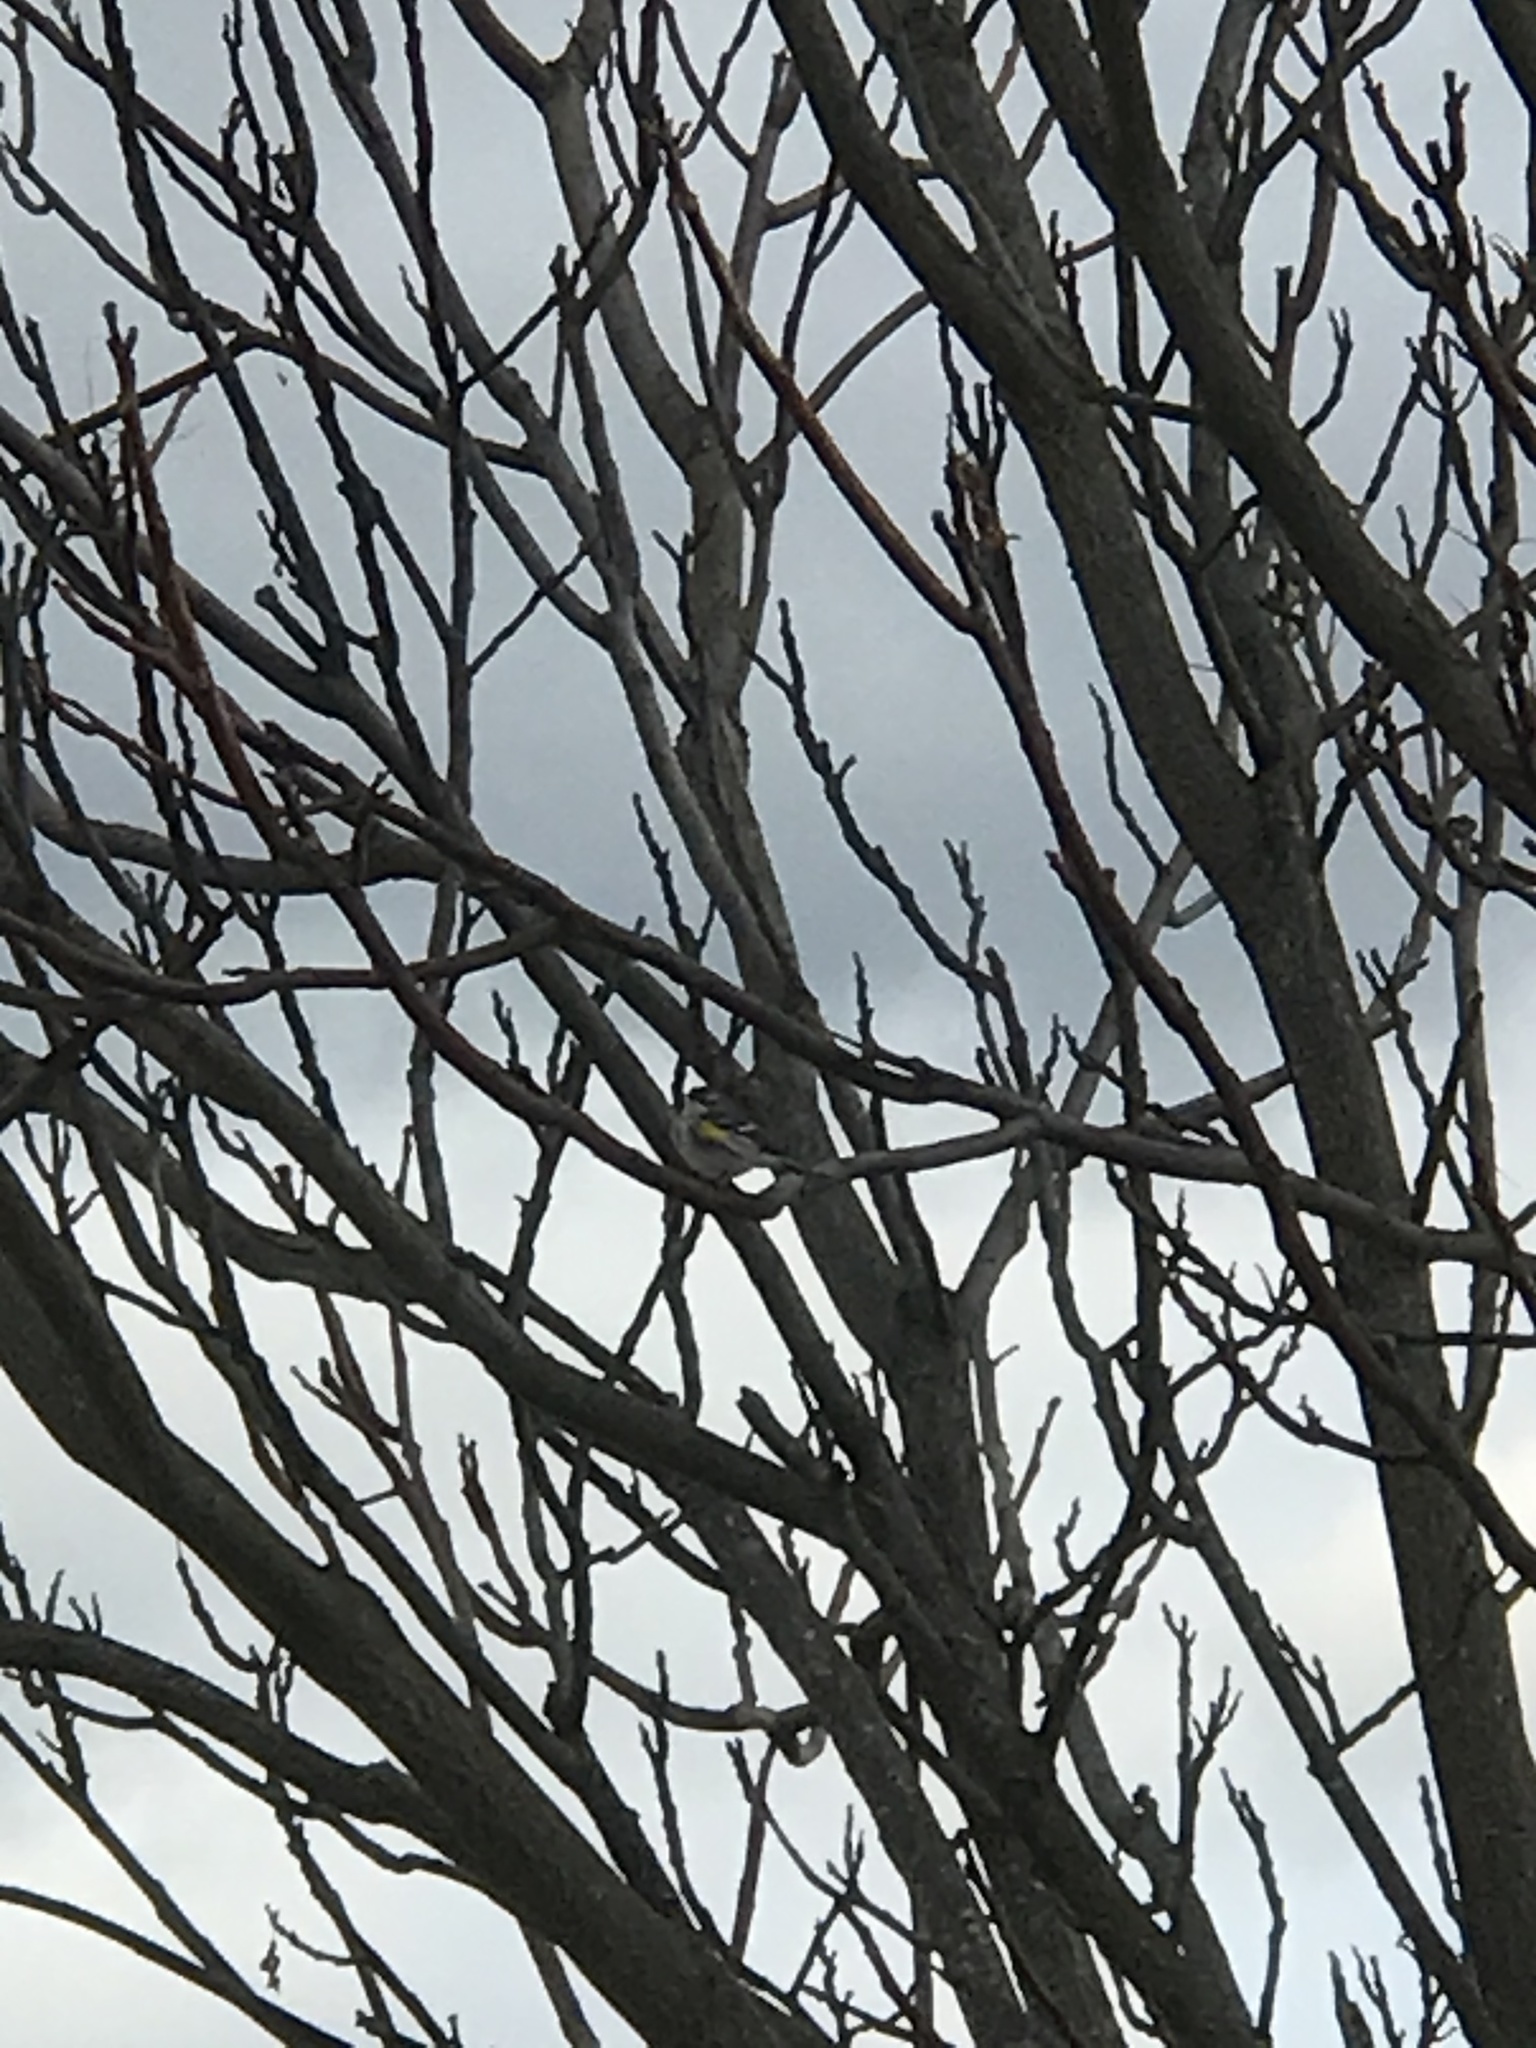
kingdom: Animalia
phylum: Chordata
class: Aves
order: Passeriformes
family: Parulidae
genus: Setophaga
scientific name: Setophaga coronata
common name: Myrtle warbler
